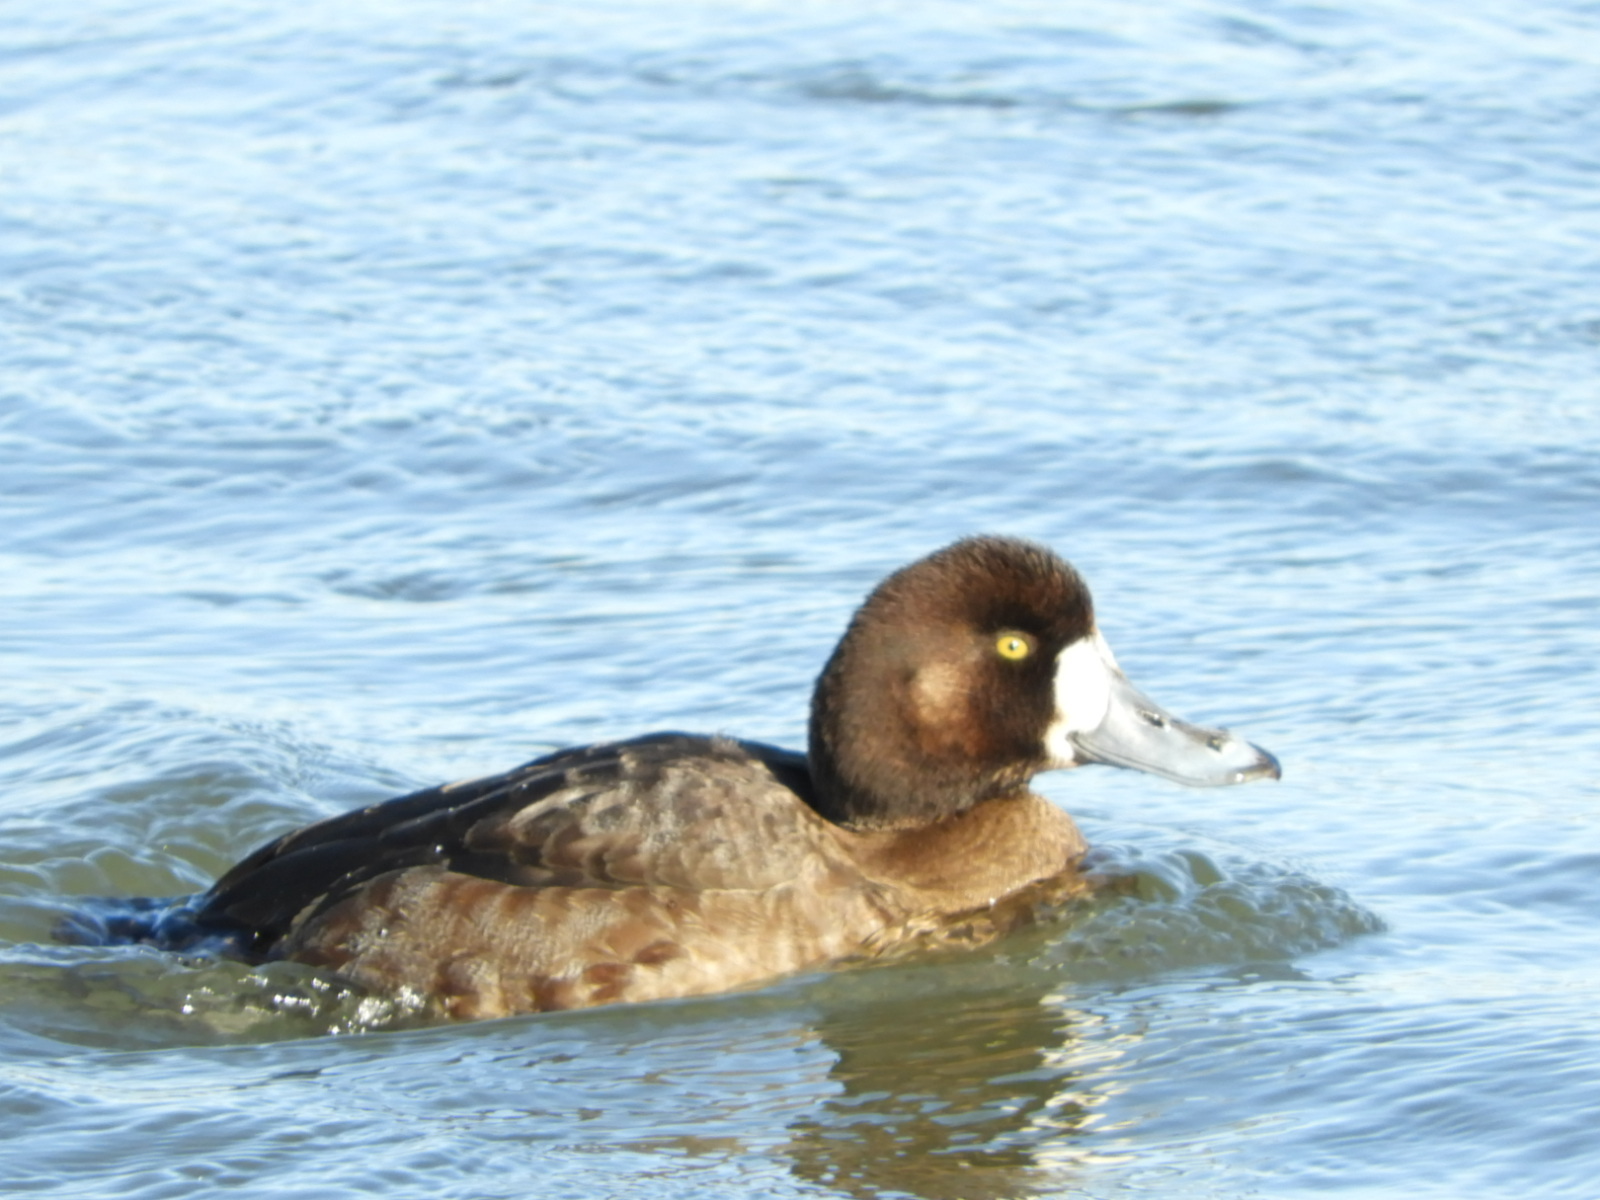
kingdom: Animalia
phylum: Chordata
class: Aves
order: Anseriformes
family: Anatidae
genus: Aythya
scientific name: Aythya marila
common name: Greater scaup
